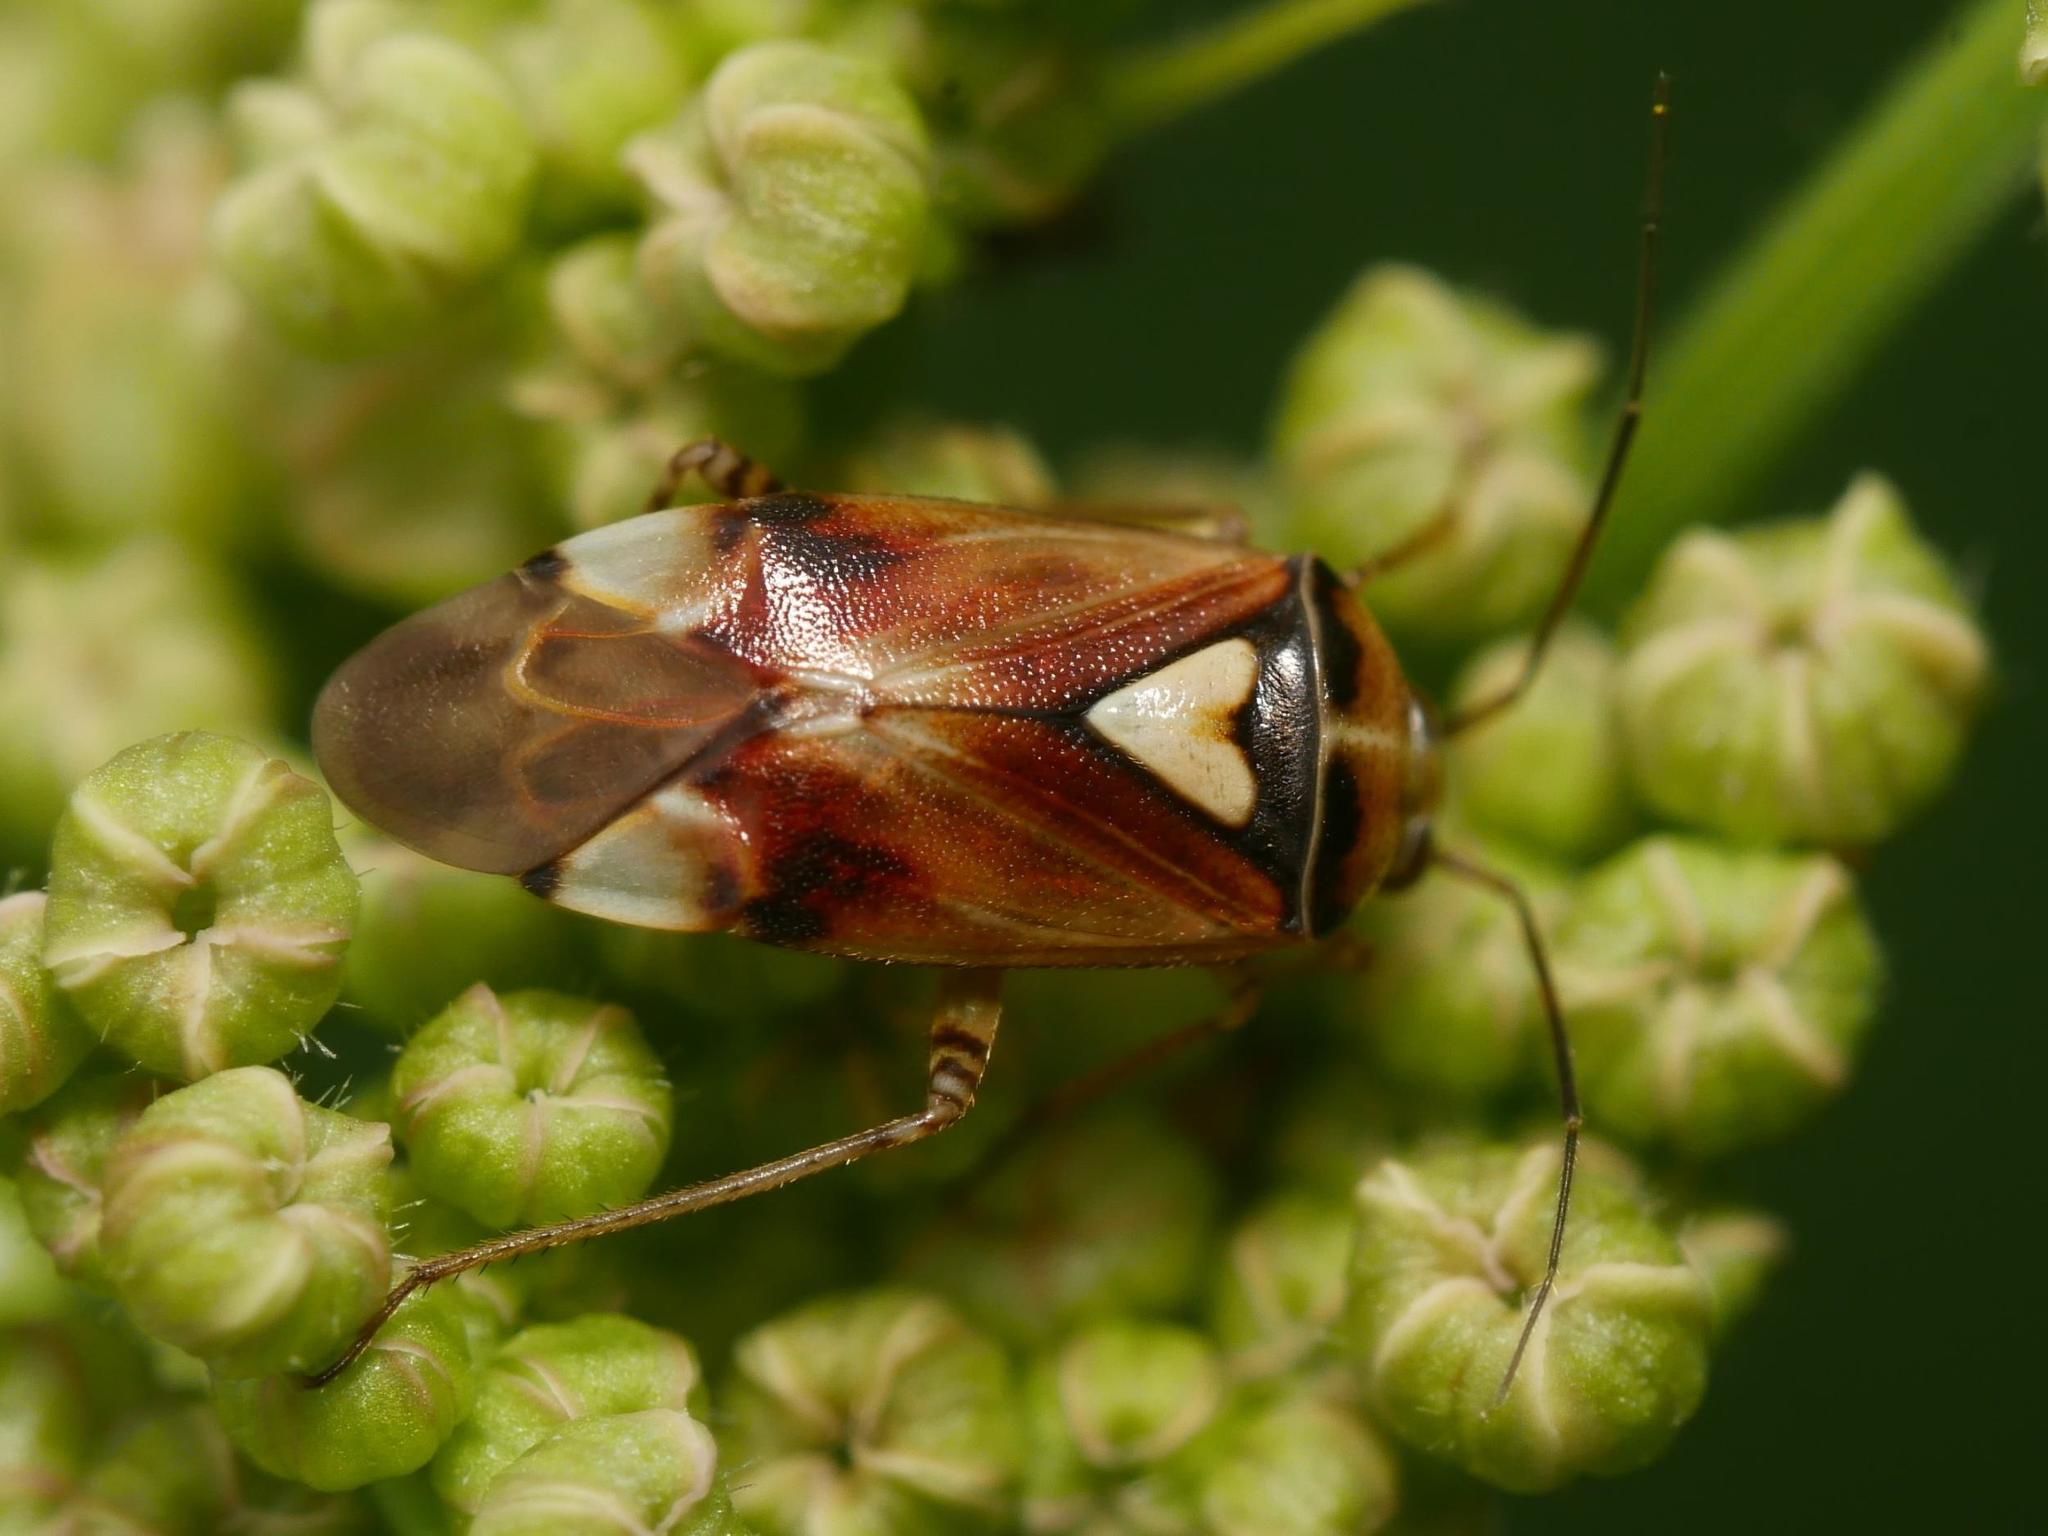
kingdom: Animalia
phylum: Arthropoda
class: Insecta
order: Hemiptera
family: Miridae
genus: Lygus
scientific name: Lygus pratensis
